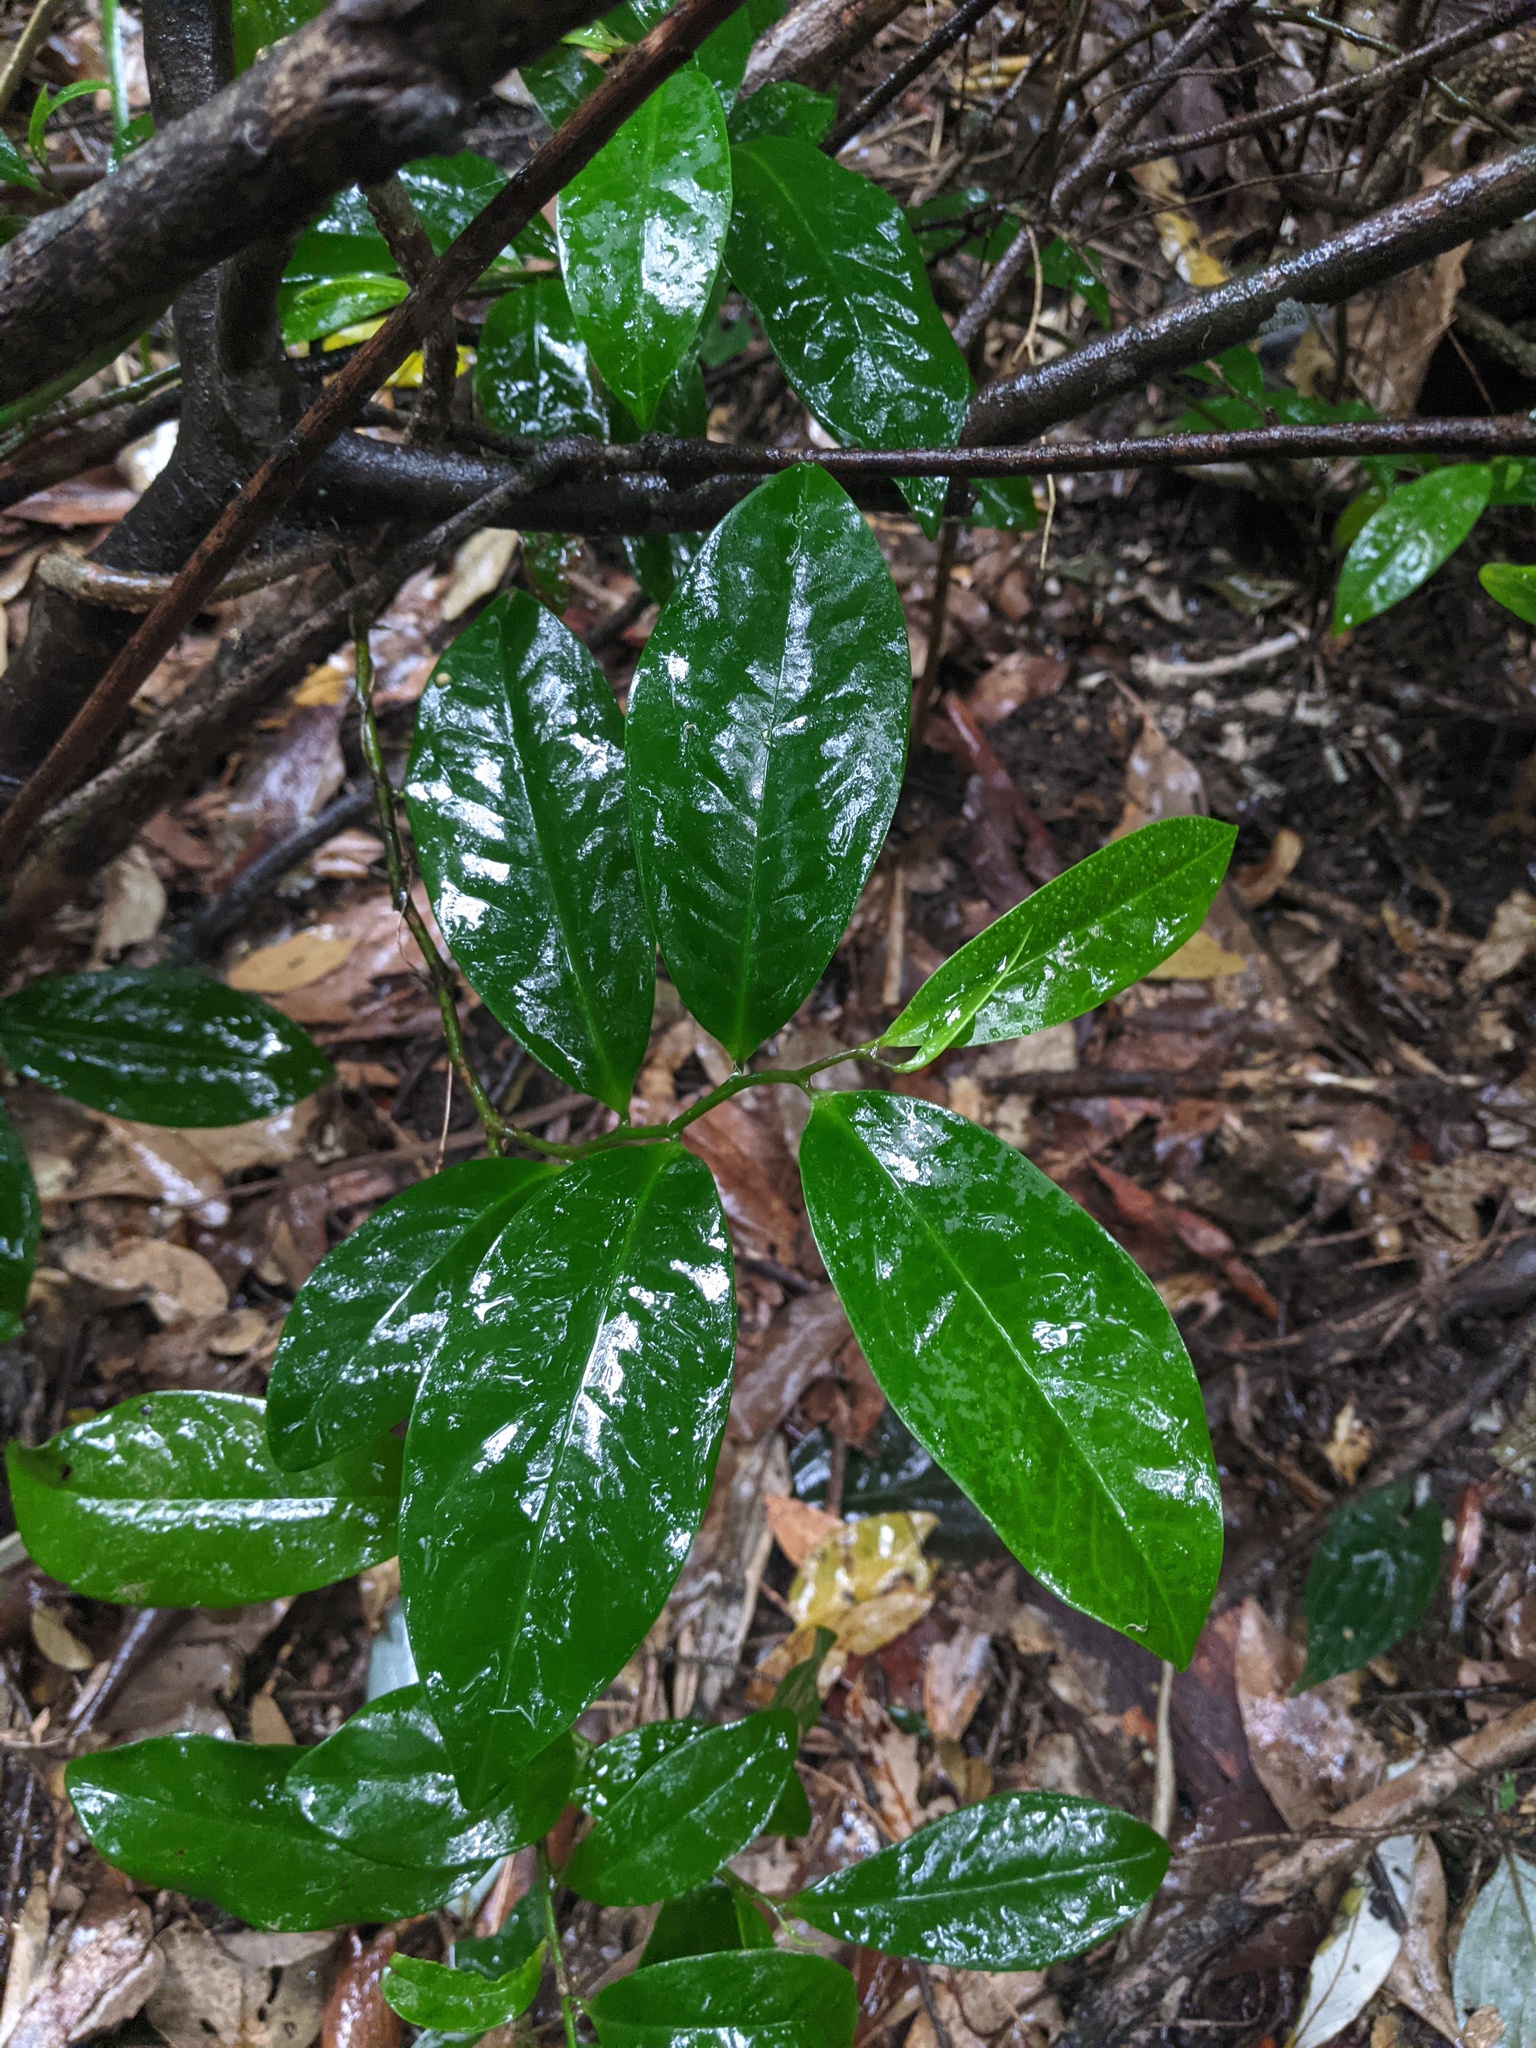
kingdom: Plantae
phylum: Tracheophyta
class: Magnoliopsida
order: Magnoliales
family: Eupomatiaceae
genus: Eupomatia
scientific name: Eupomatia laurina
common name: Bolwarra
